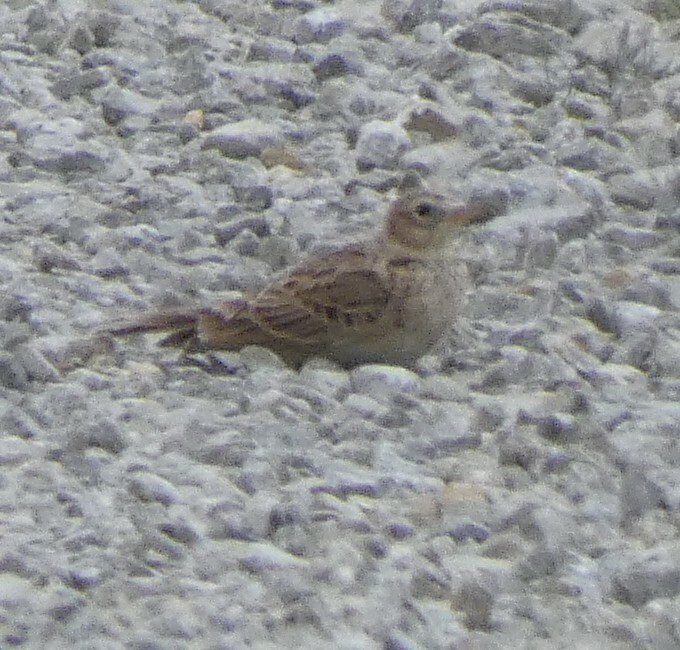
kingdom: Animalia
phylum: Chordata
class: Aves
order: Passeriformes
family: Alaudidae
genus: Alauda
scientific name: Alauda arvensis
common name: Eurasian skylark
